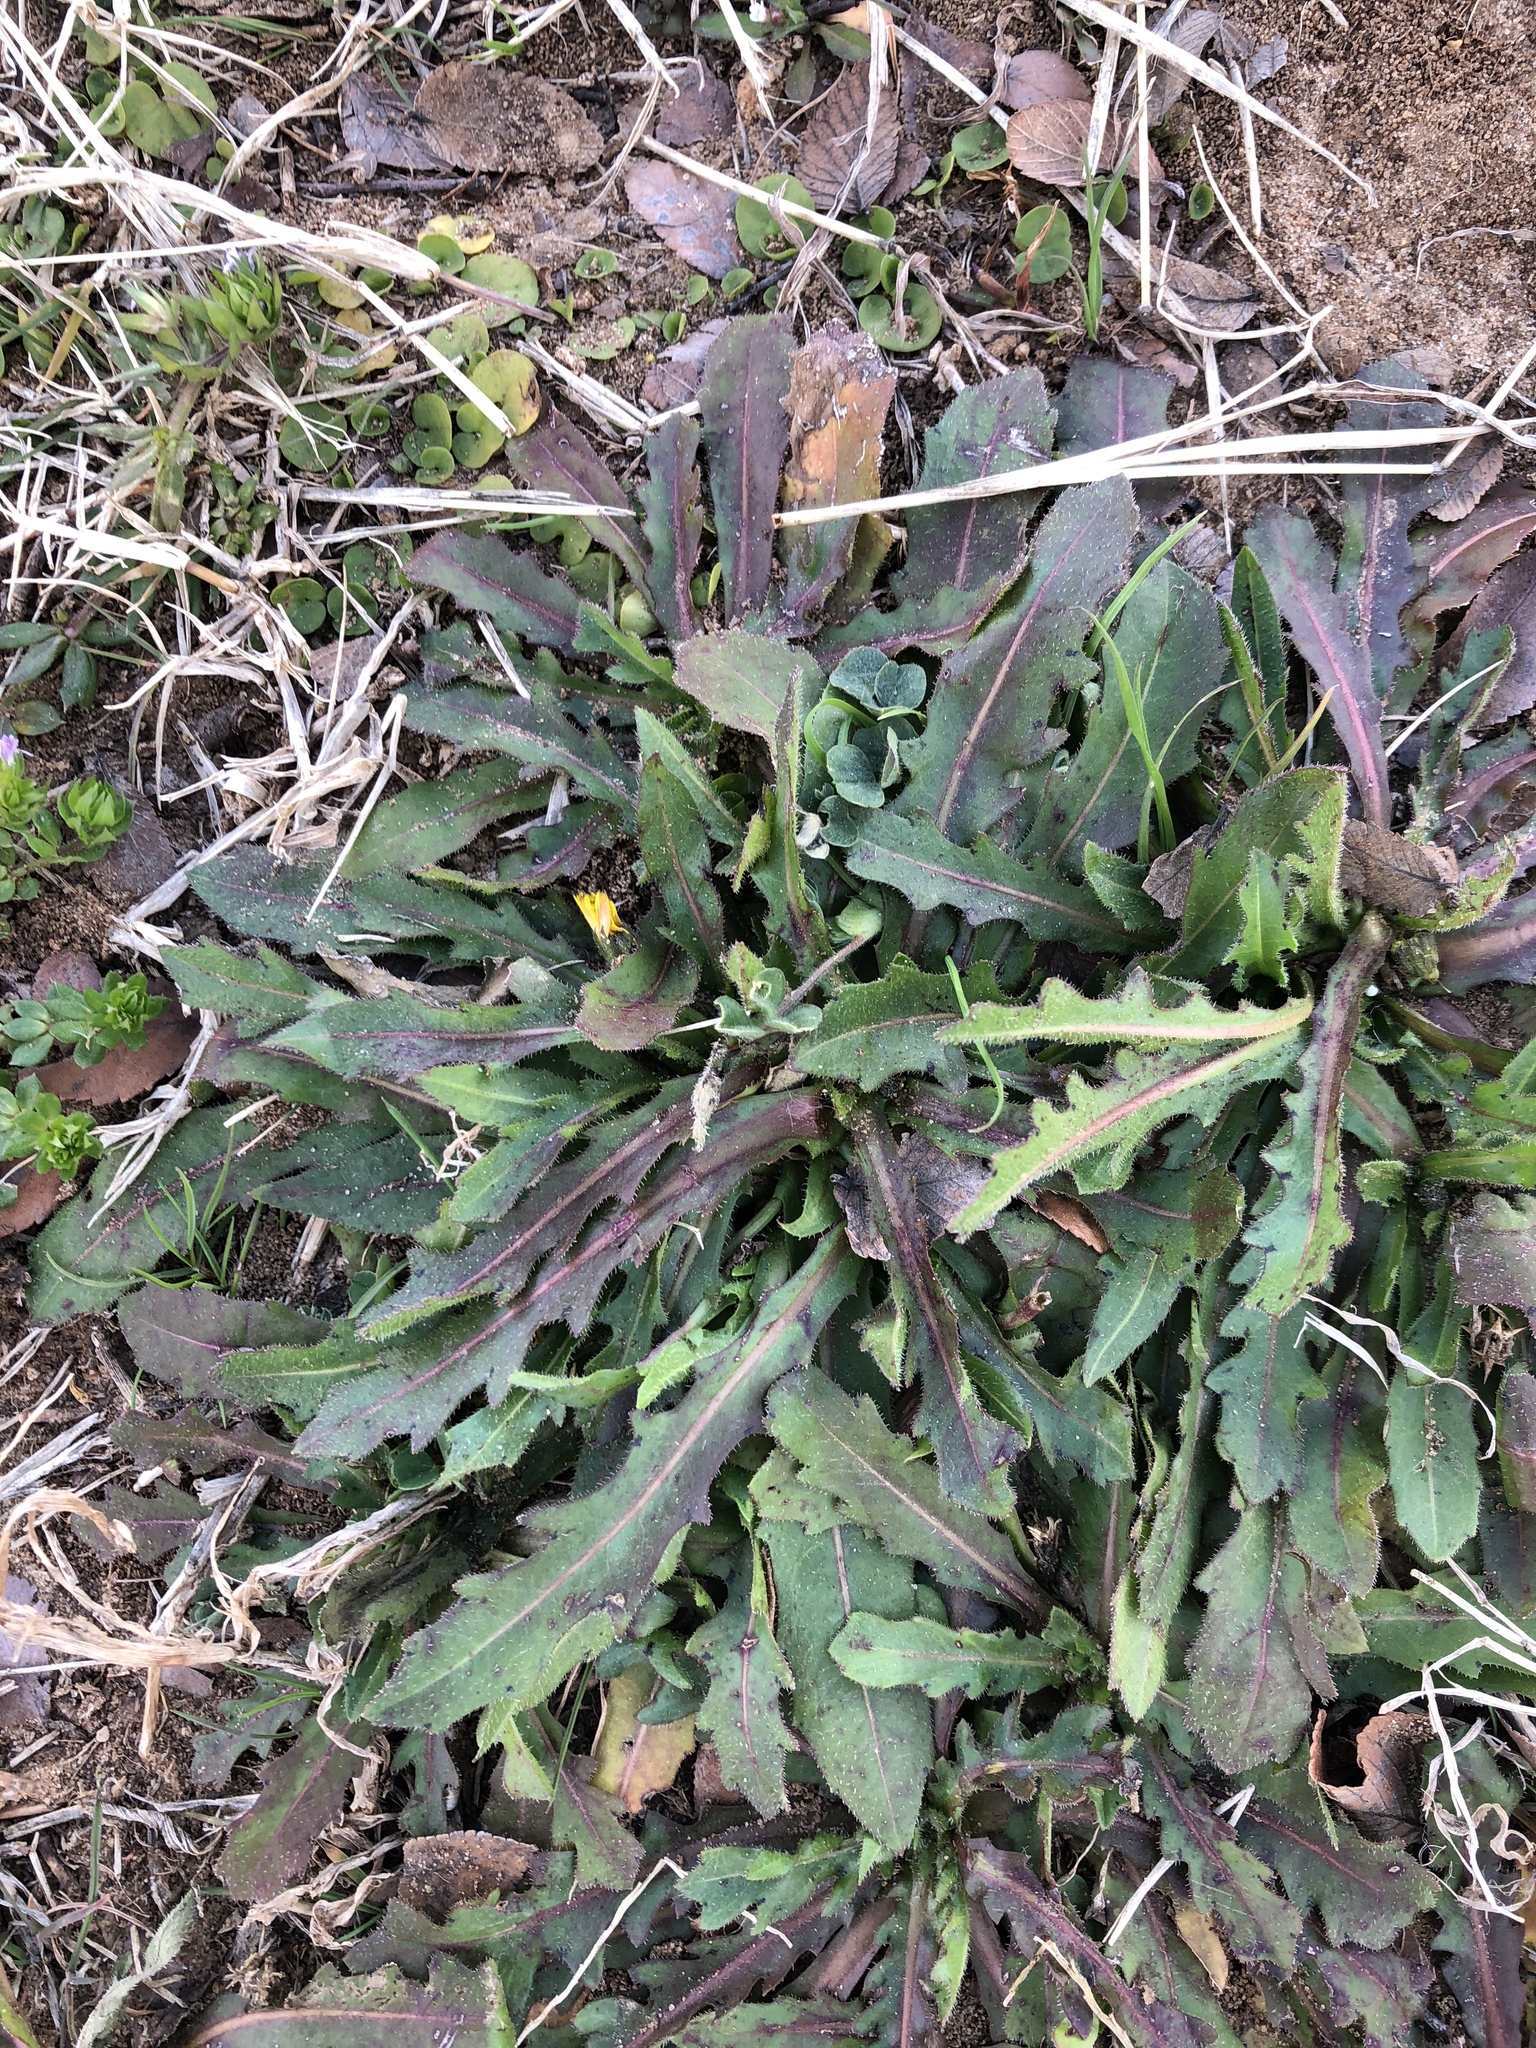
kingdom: Plantae
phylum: Tracheophyta
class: Magnoliopsida
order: Asterales
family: Asteraceae
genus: Hedypnois
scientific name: Hedypnois rhagadioloides
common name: Cretan weed
